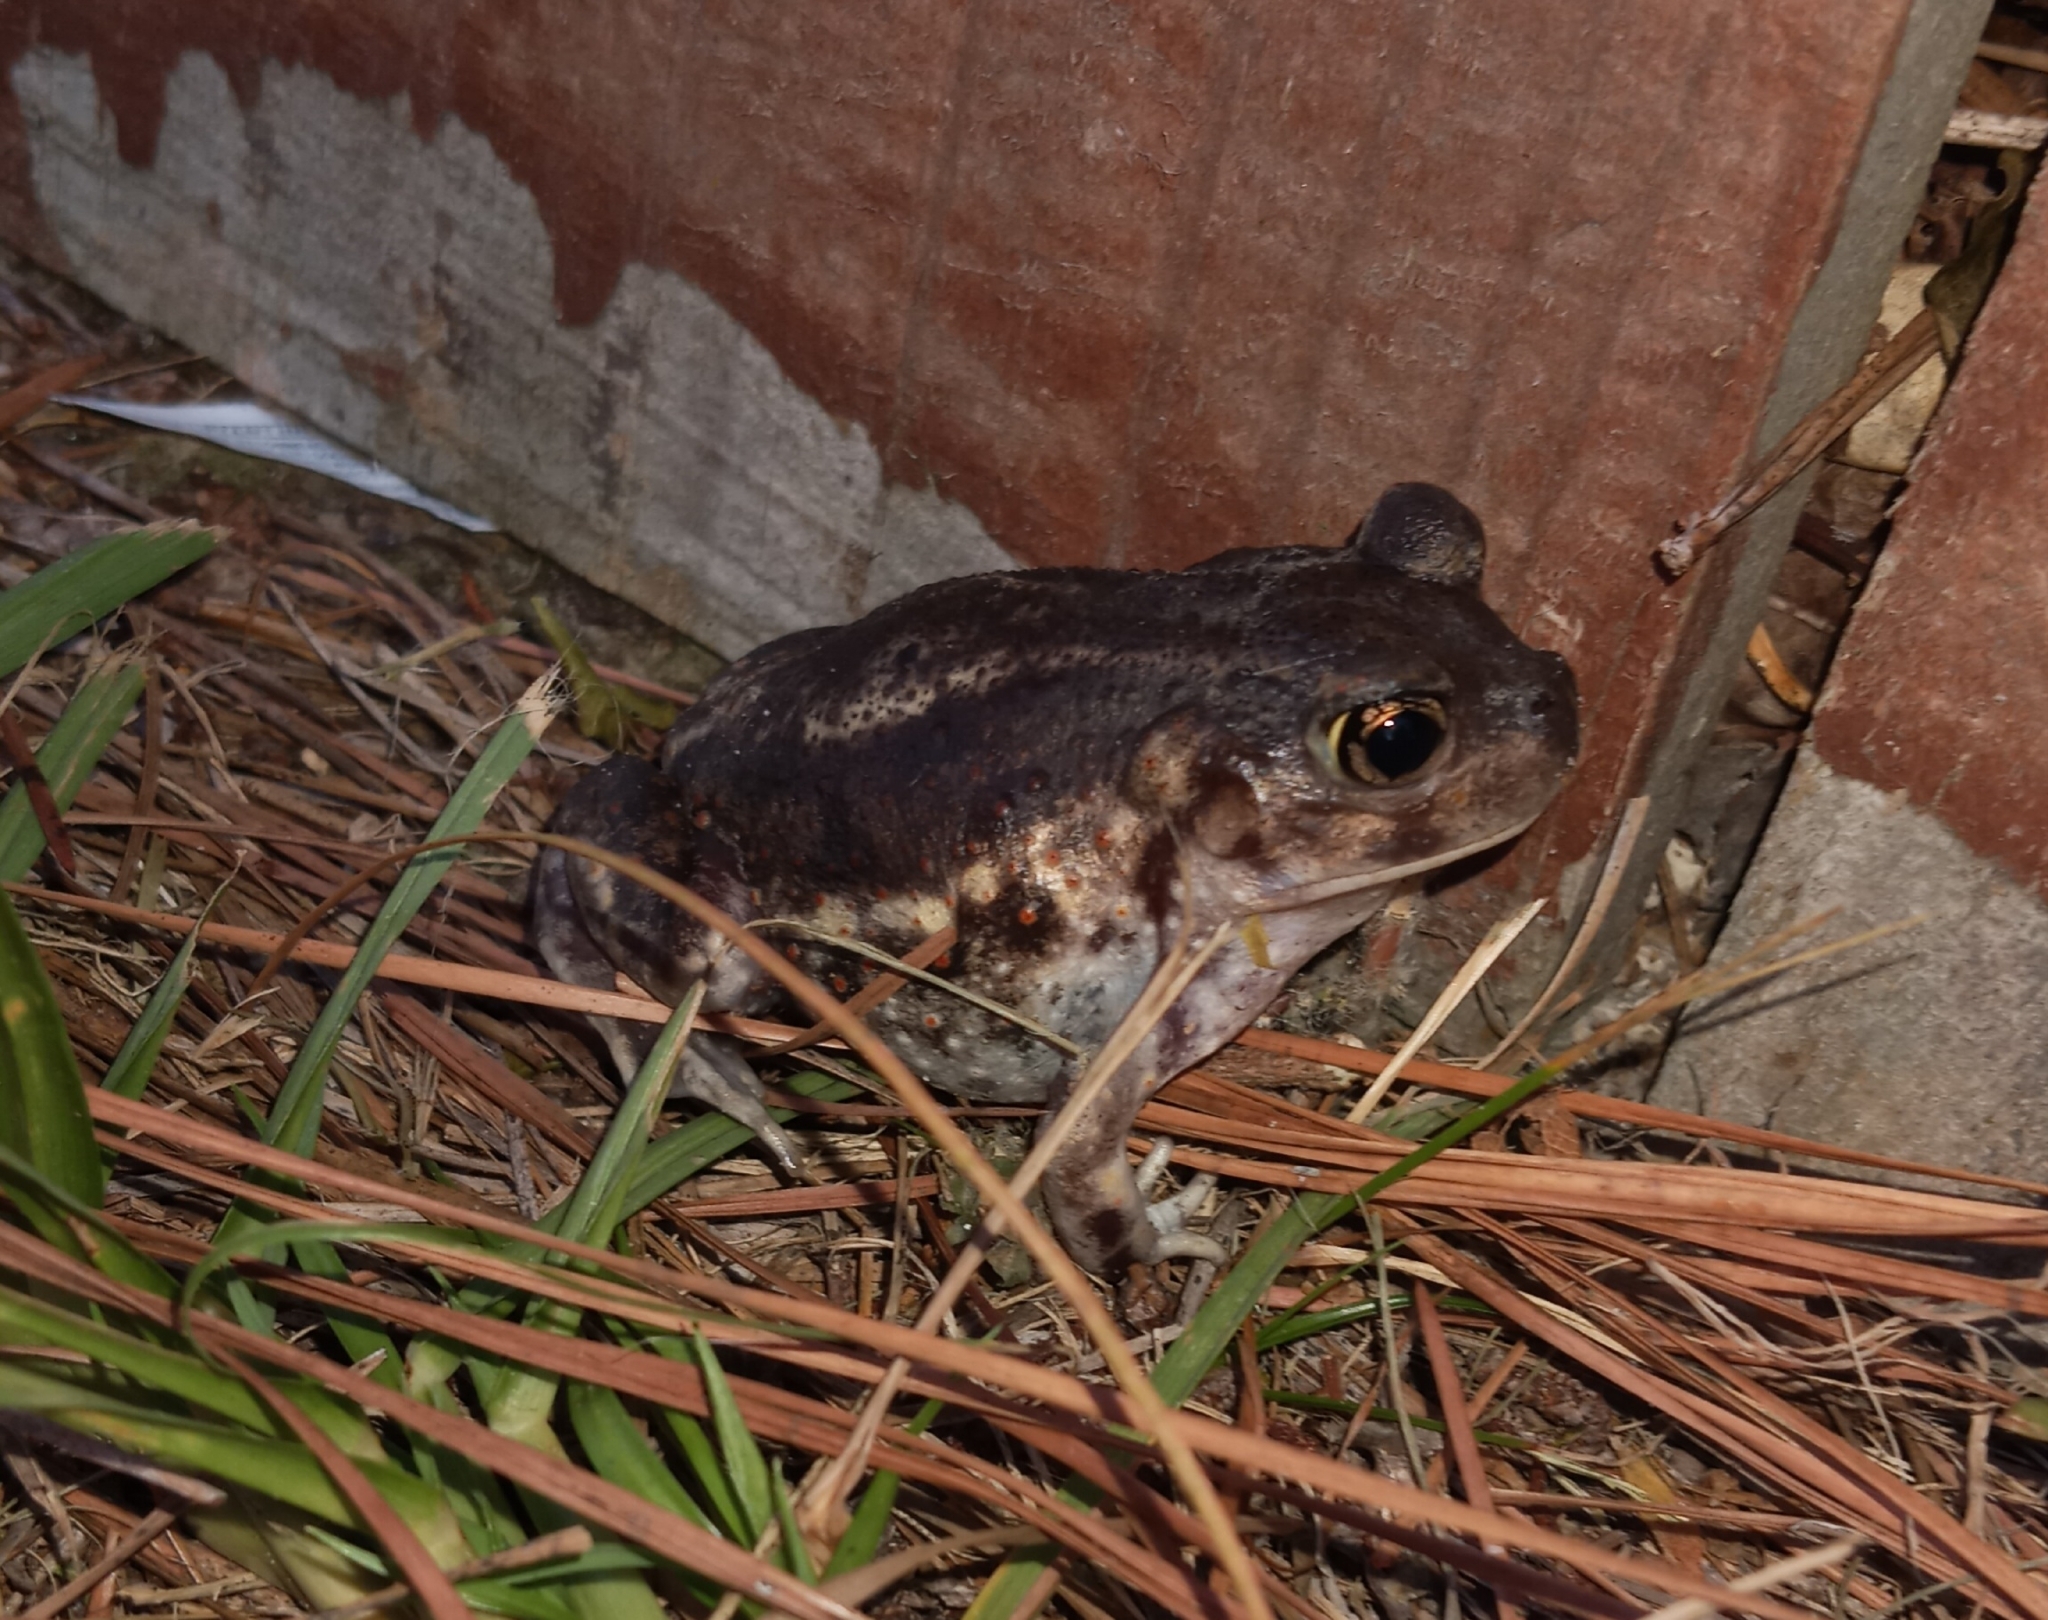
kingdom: Animalia
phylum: Chordata
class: Amphibia
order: Anura
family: Scaphiopodidae
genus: Scaphiopus
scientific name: Scaphiopus holbrookii
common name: Eastern spadefoot toad
